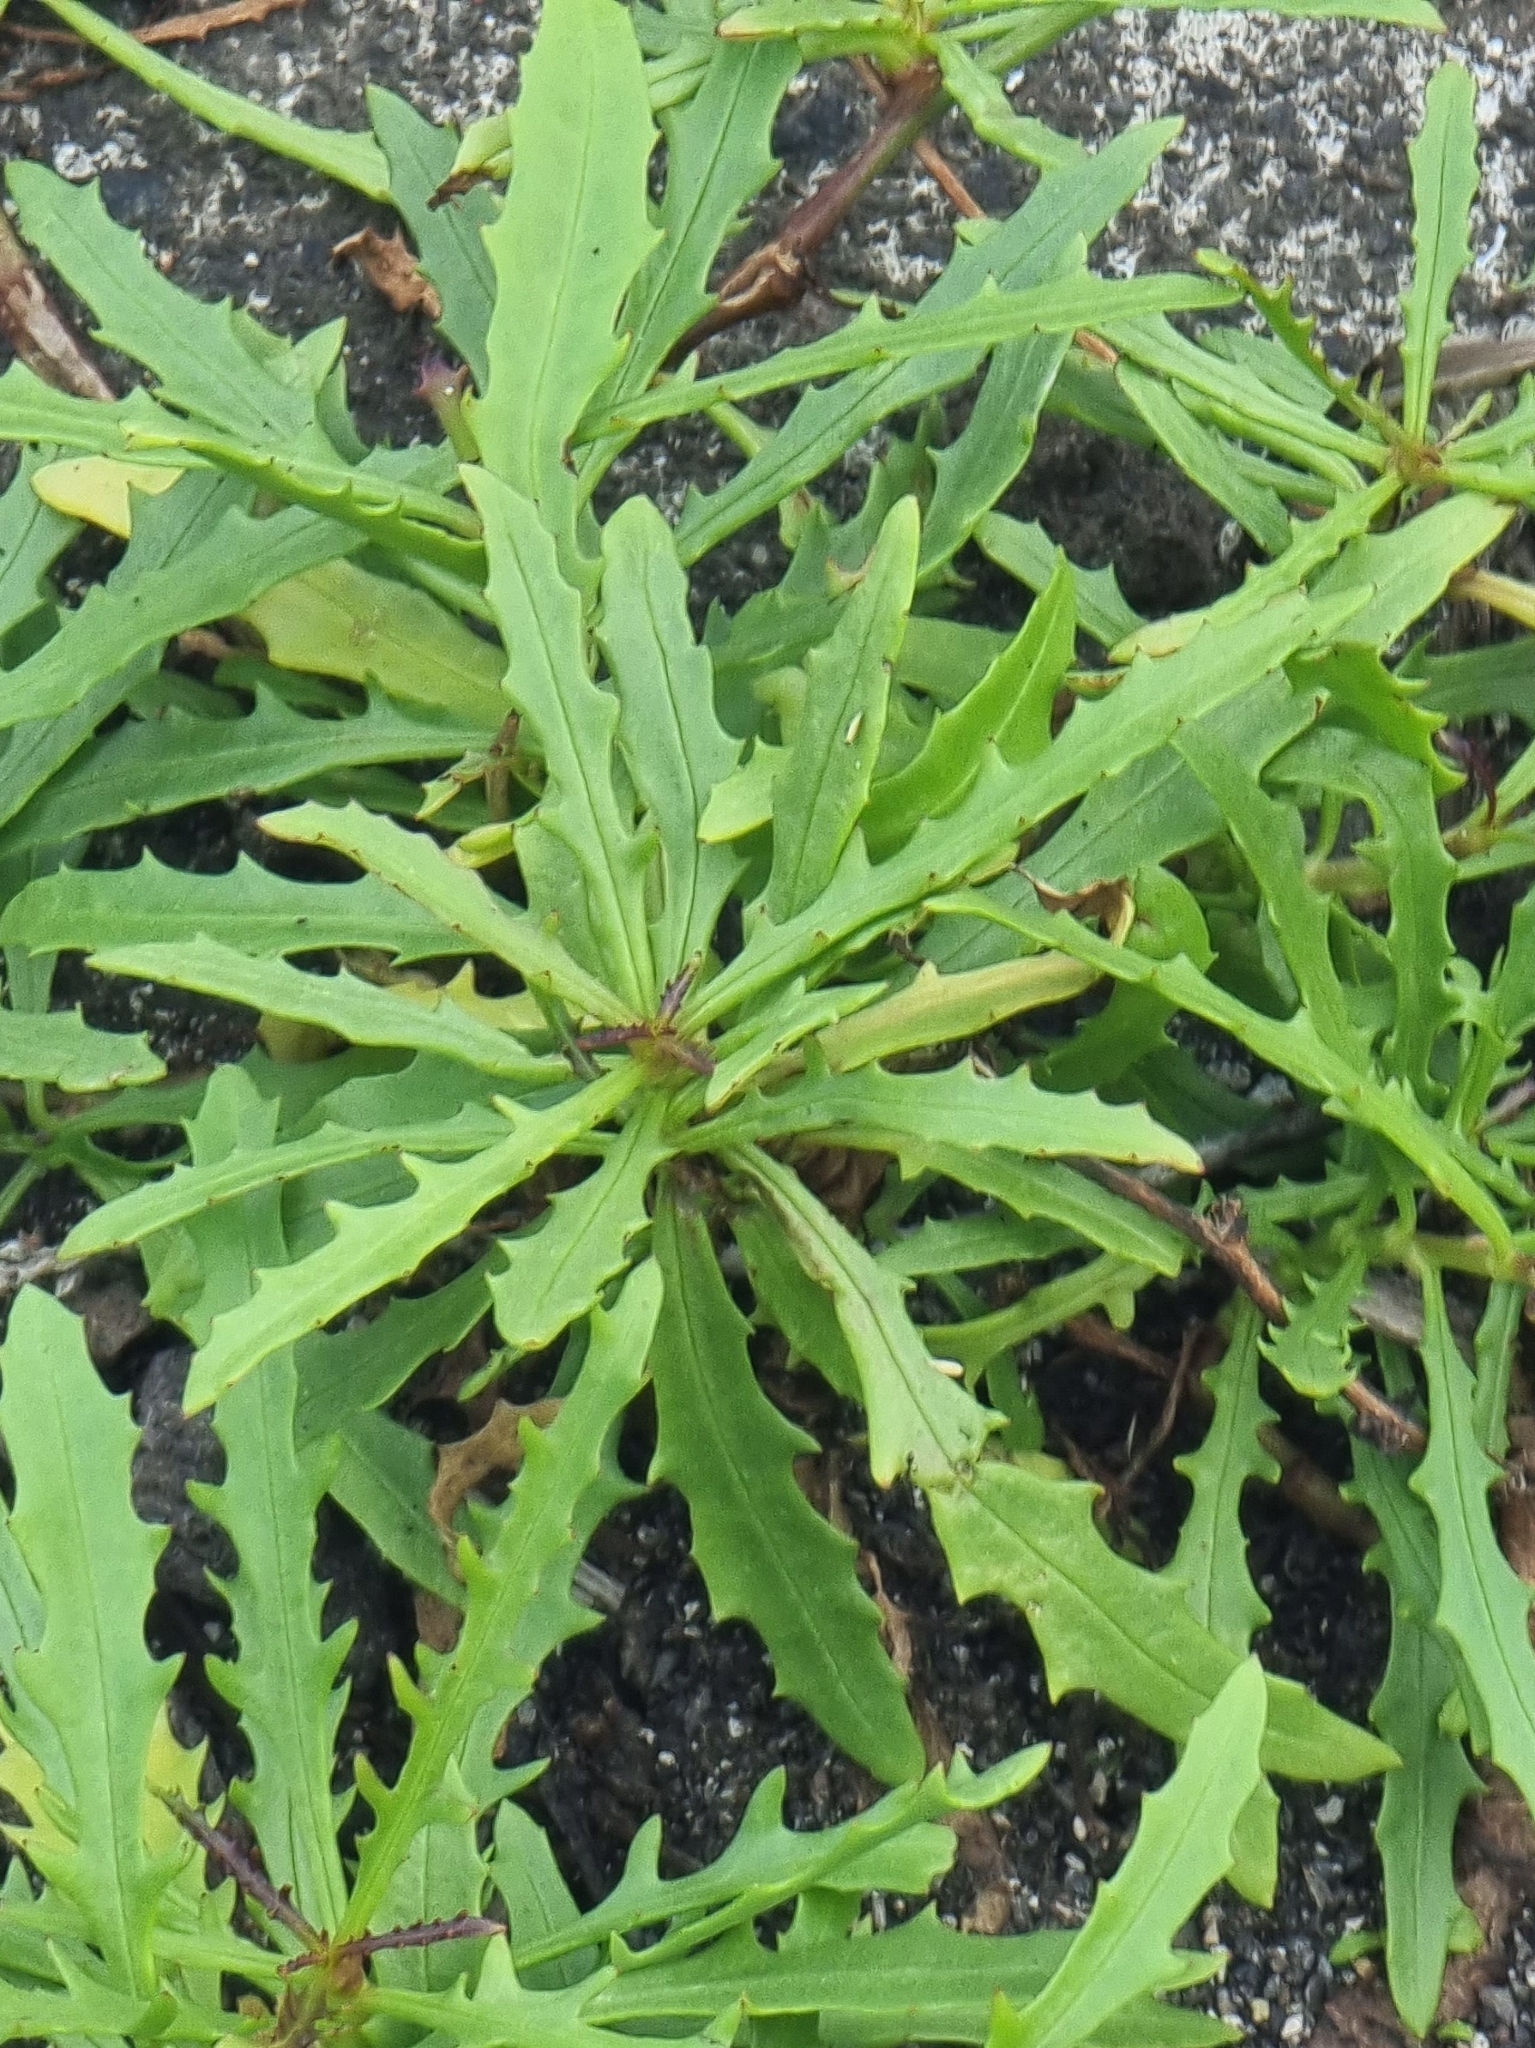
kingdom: Plantae
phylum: Tracheophyta
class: Magnoliopsida
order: Asterales
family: Asteraceae
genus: Tolpis
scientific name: Tolpis succulenta
